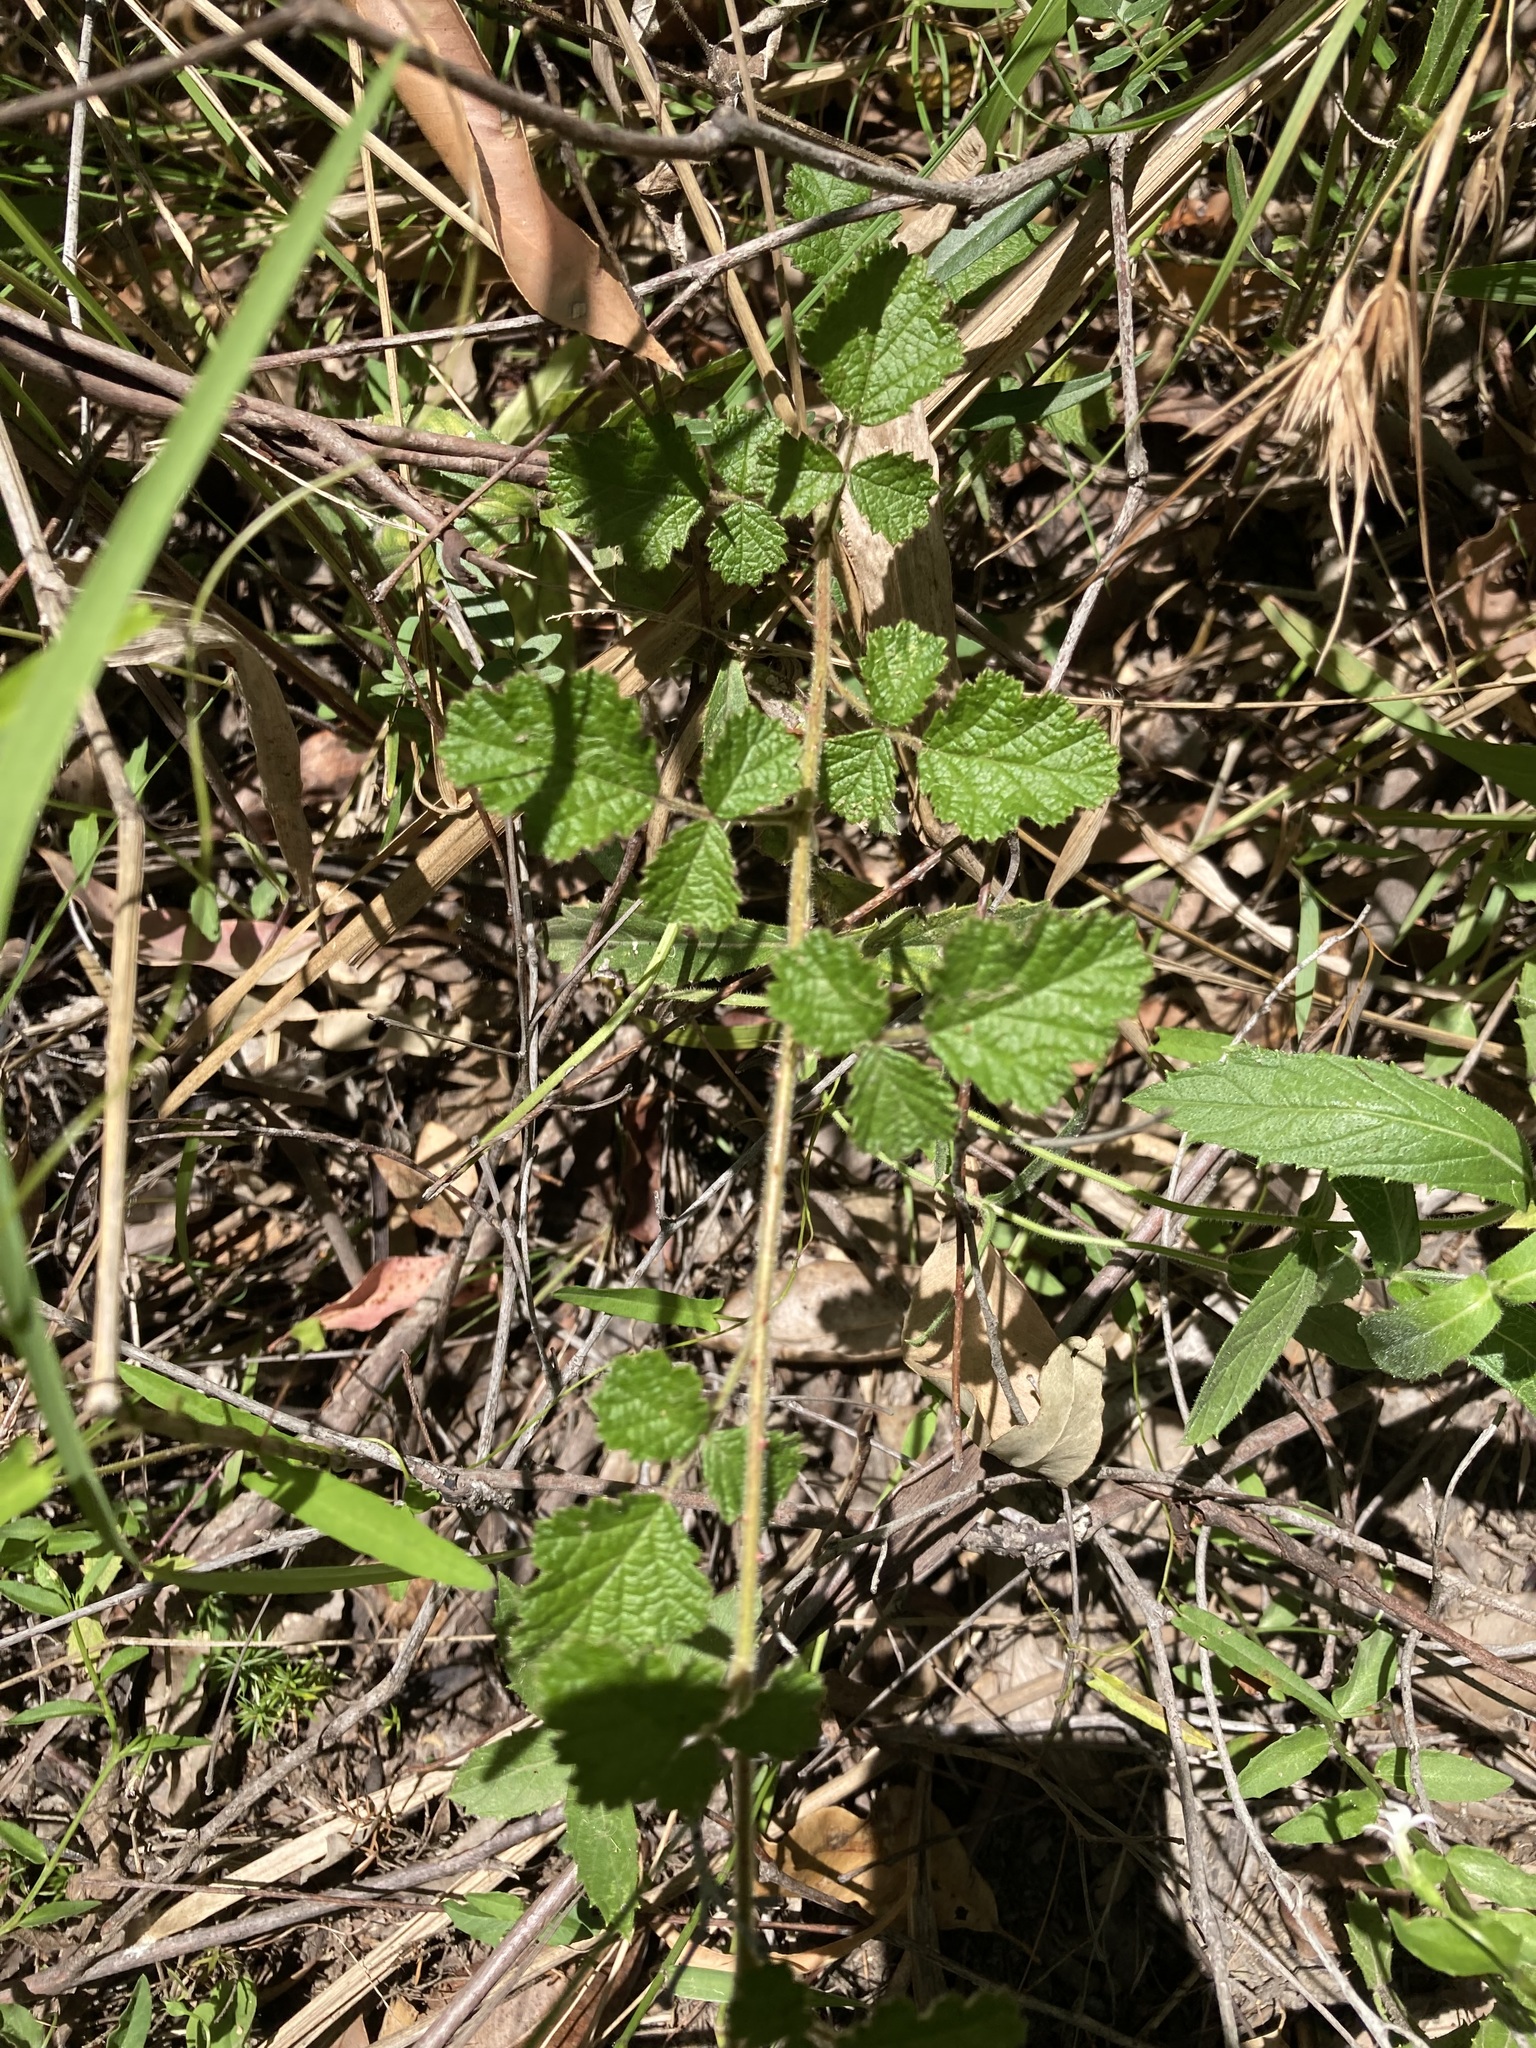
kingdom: Plantae
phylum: Tracheophyta
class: Magnoliopsida
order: Rosales
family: Rosaceae
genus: Rubus
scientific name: Rubus parvifolius
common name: Threeleaf blackberry
